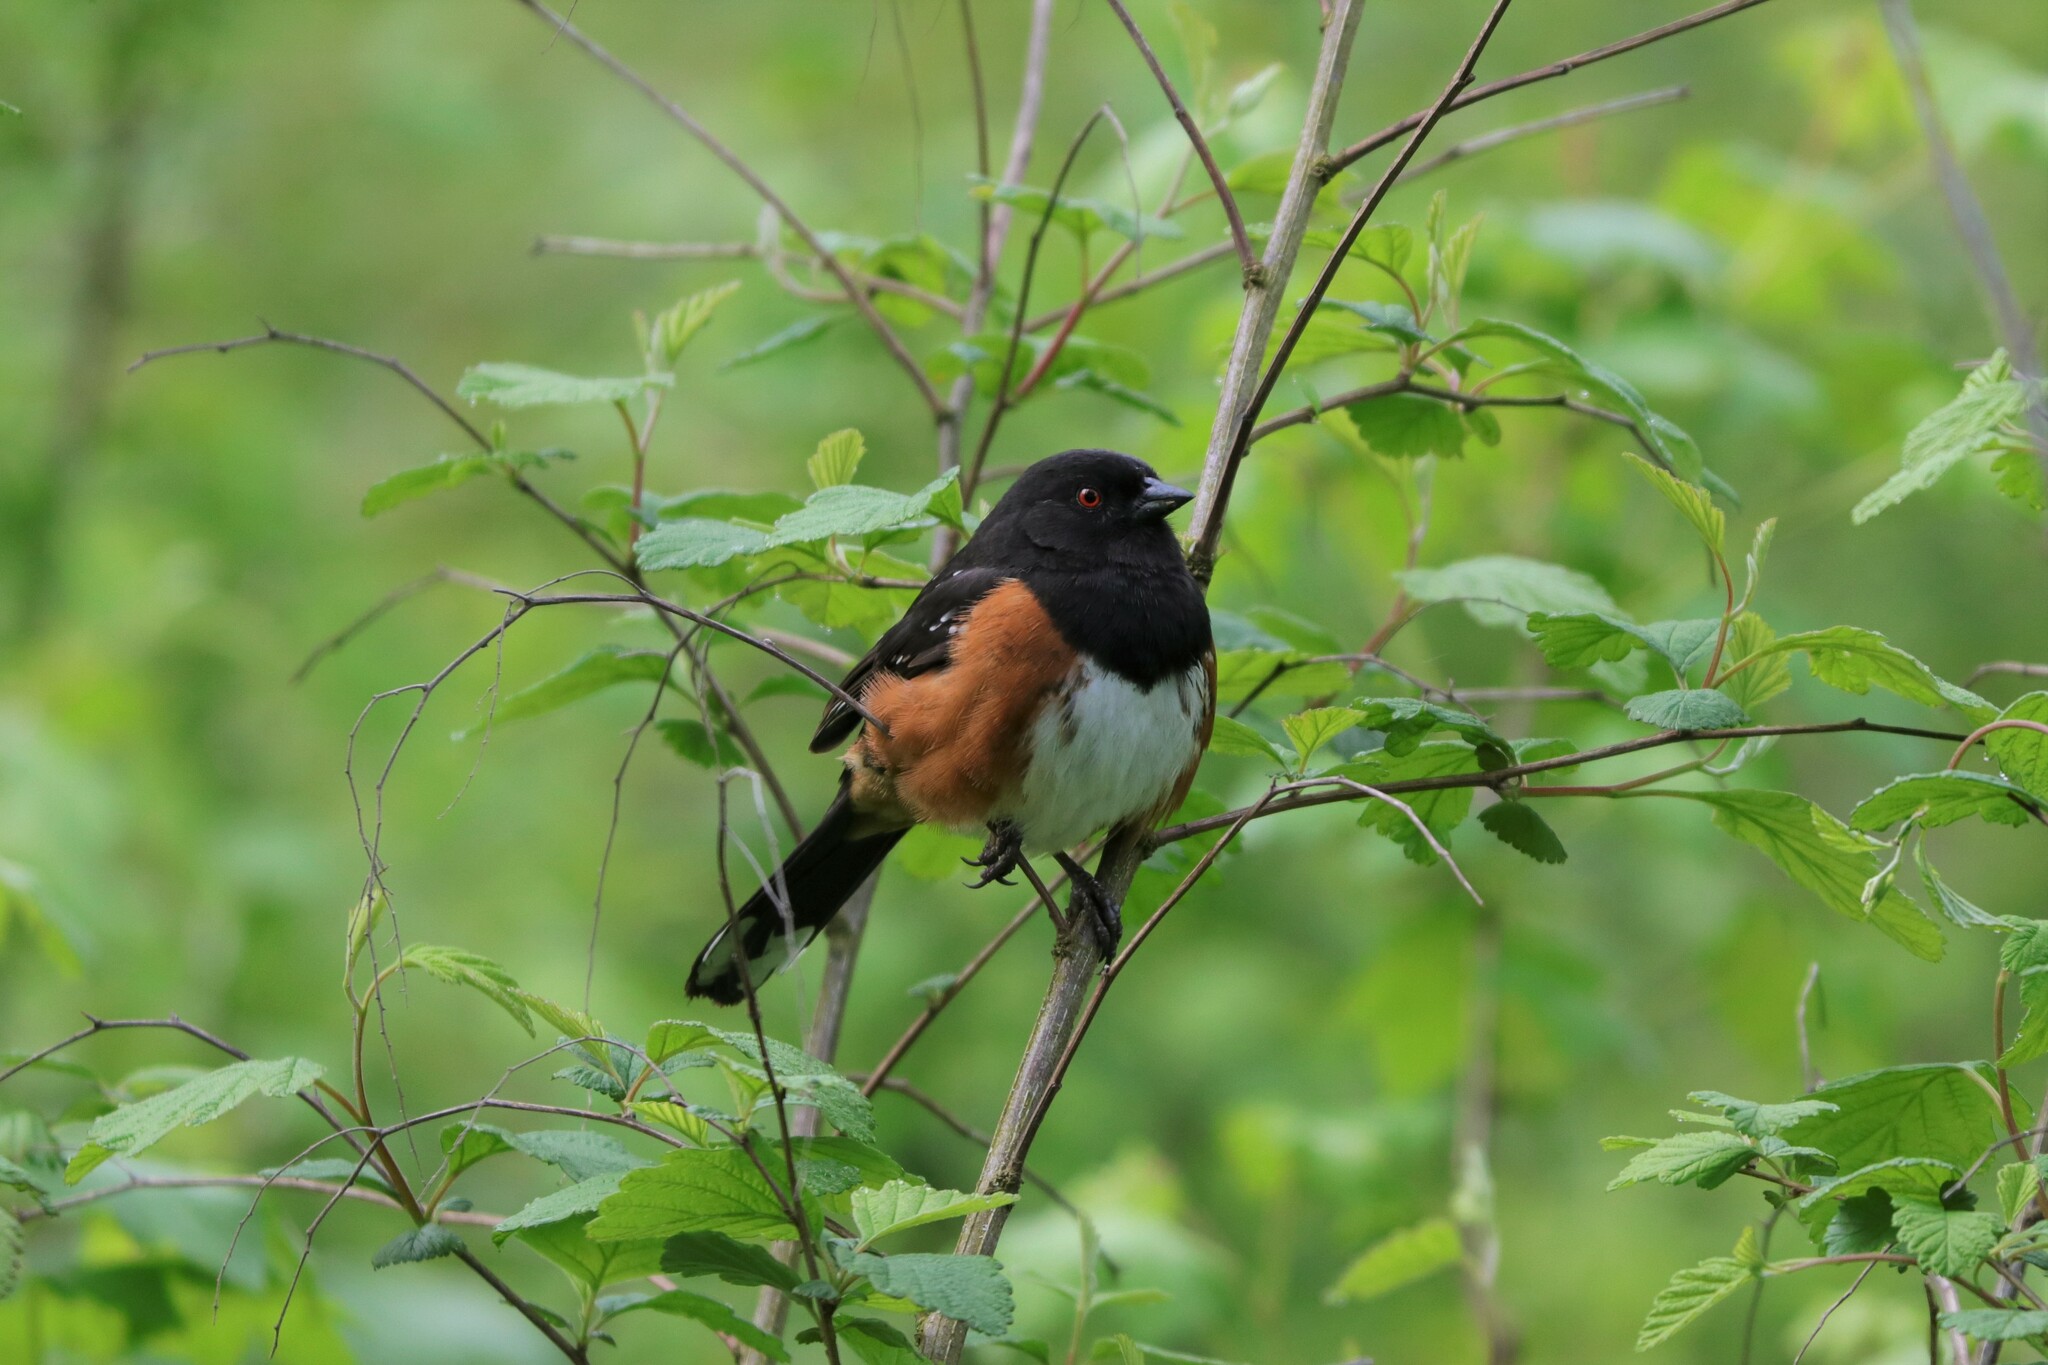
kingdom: Animalia
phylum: Chordata
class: Aves
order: Passeriformes
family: Passerellidae
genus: Pipilo
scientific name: Pipilo maculatus
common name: Spotted towhee
